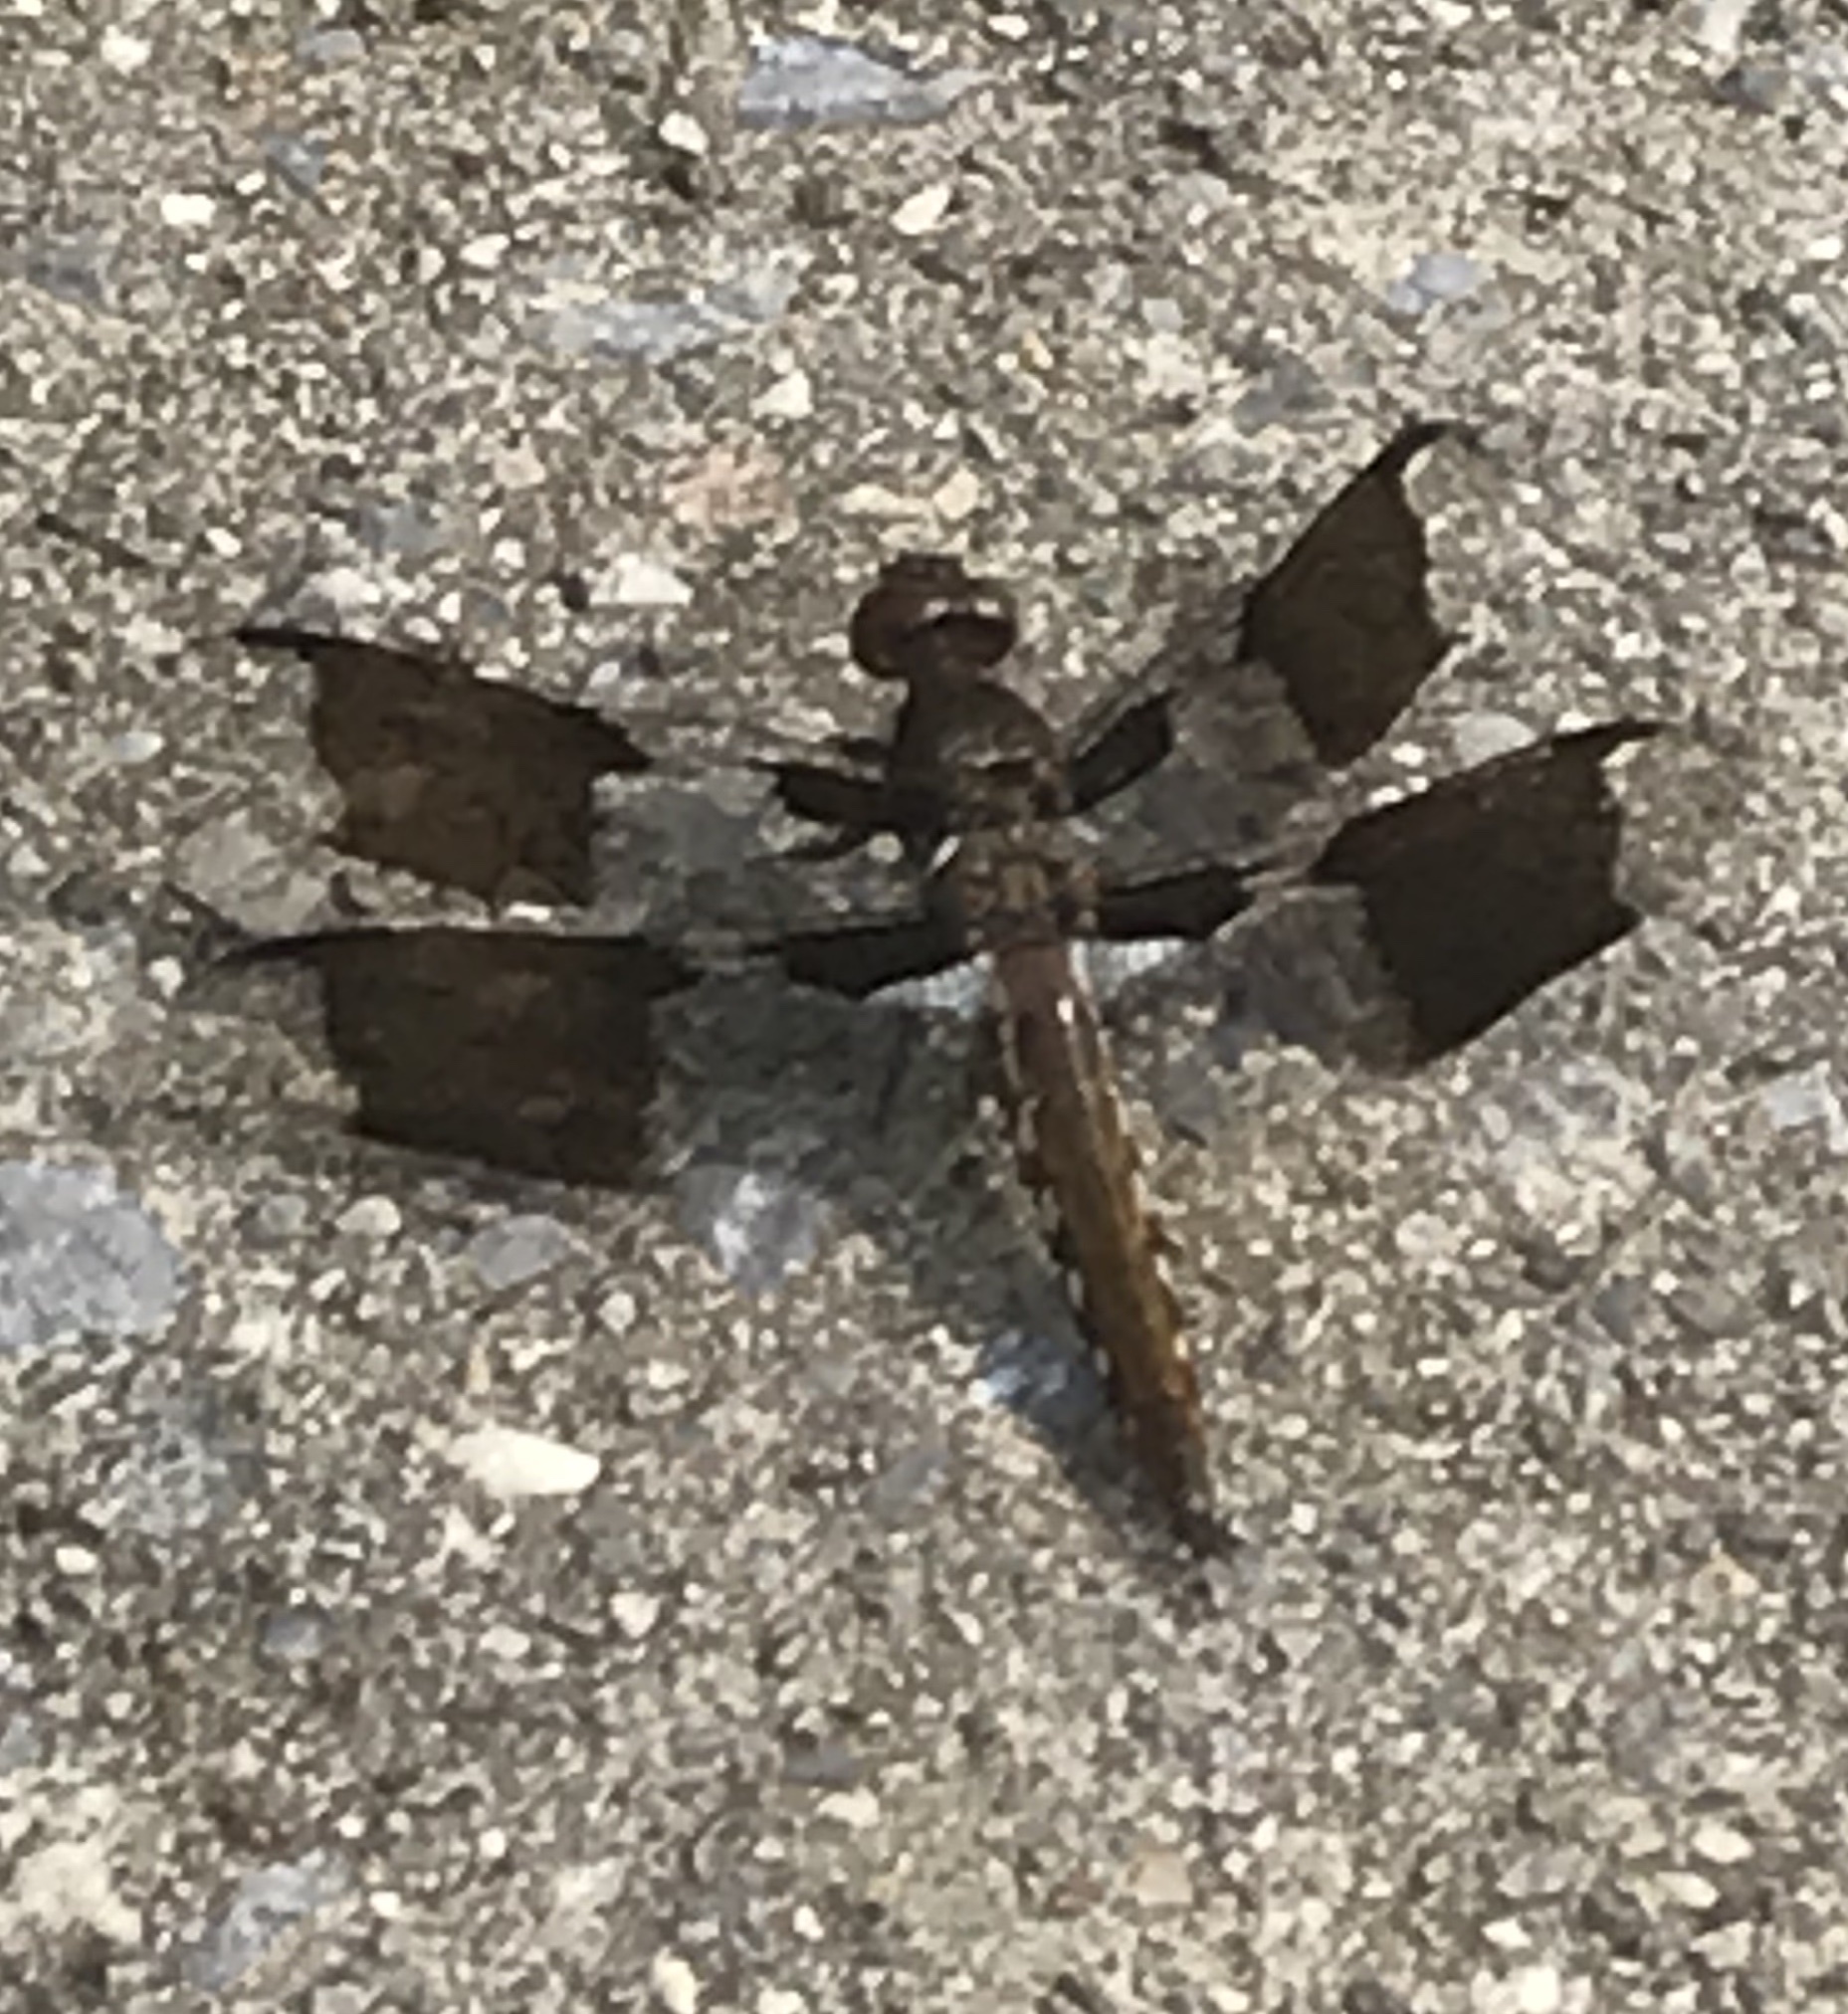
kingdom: Animalia
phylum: Arthropoda
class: Insecta
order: Odonata
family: Libellulidae
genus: Plathemis
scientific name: Plathemis lydia
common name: Common whitetail
